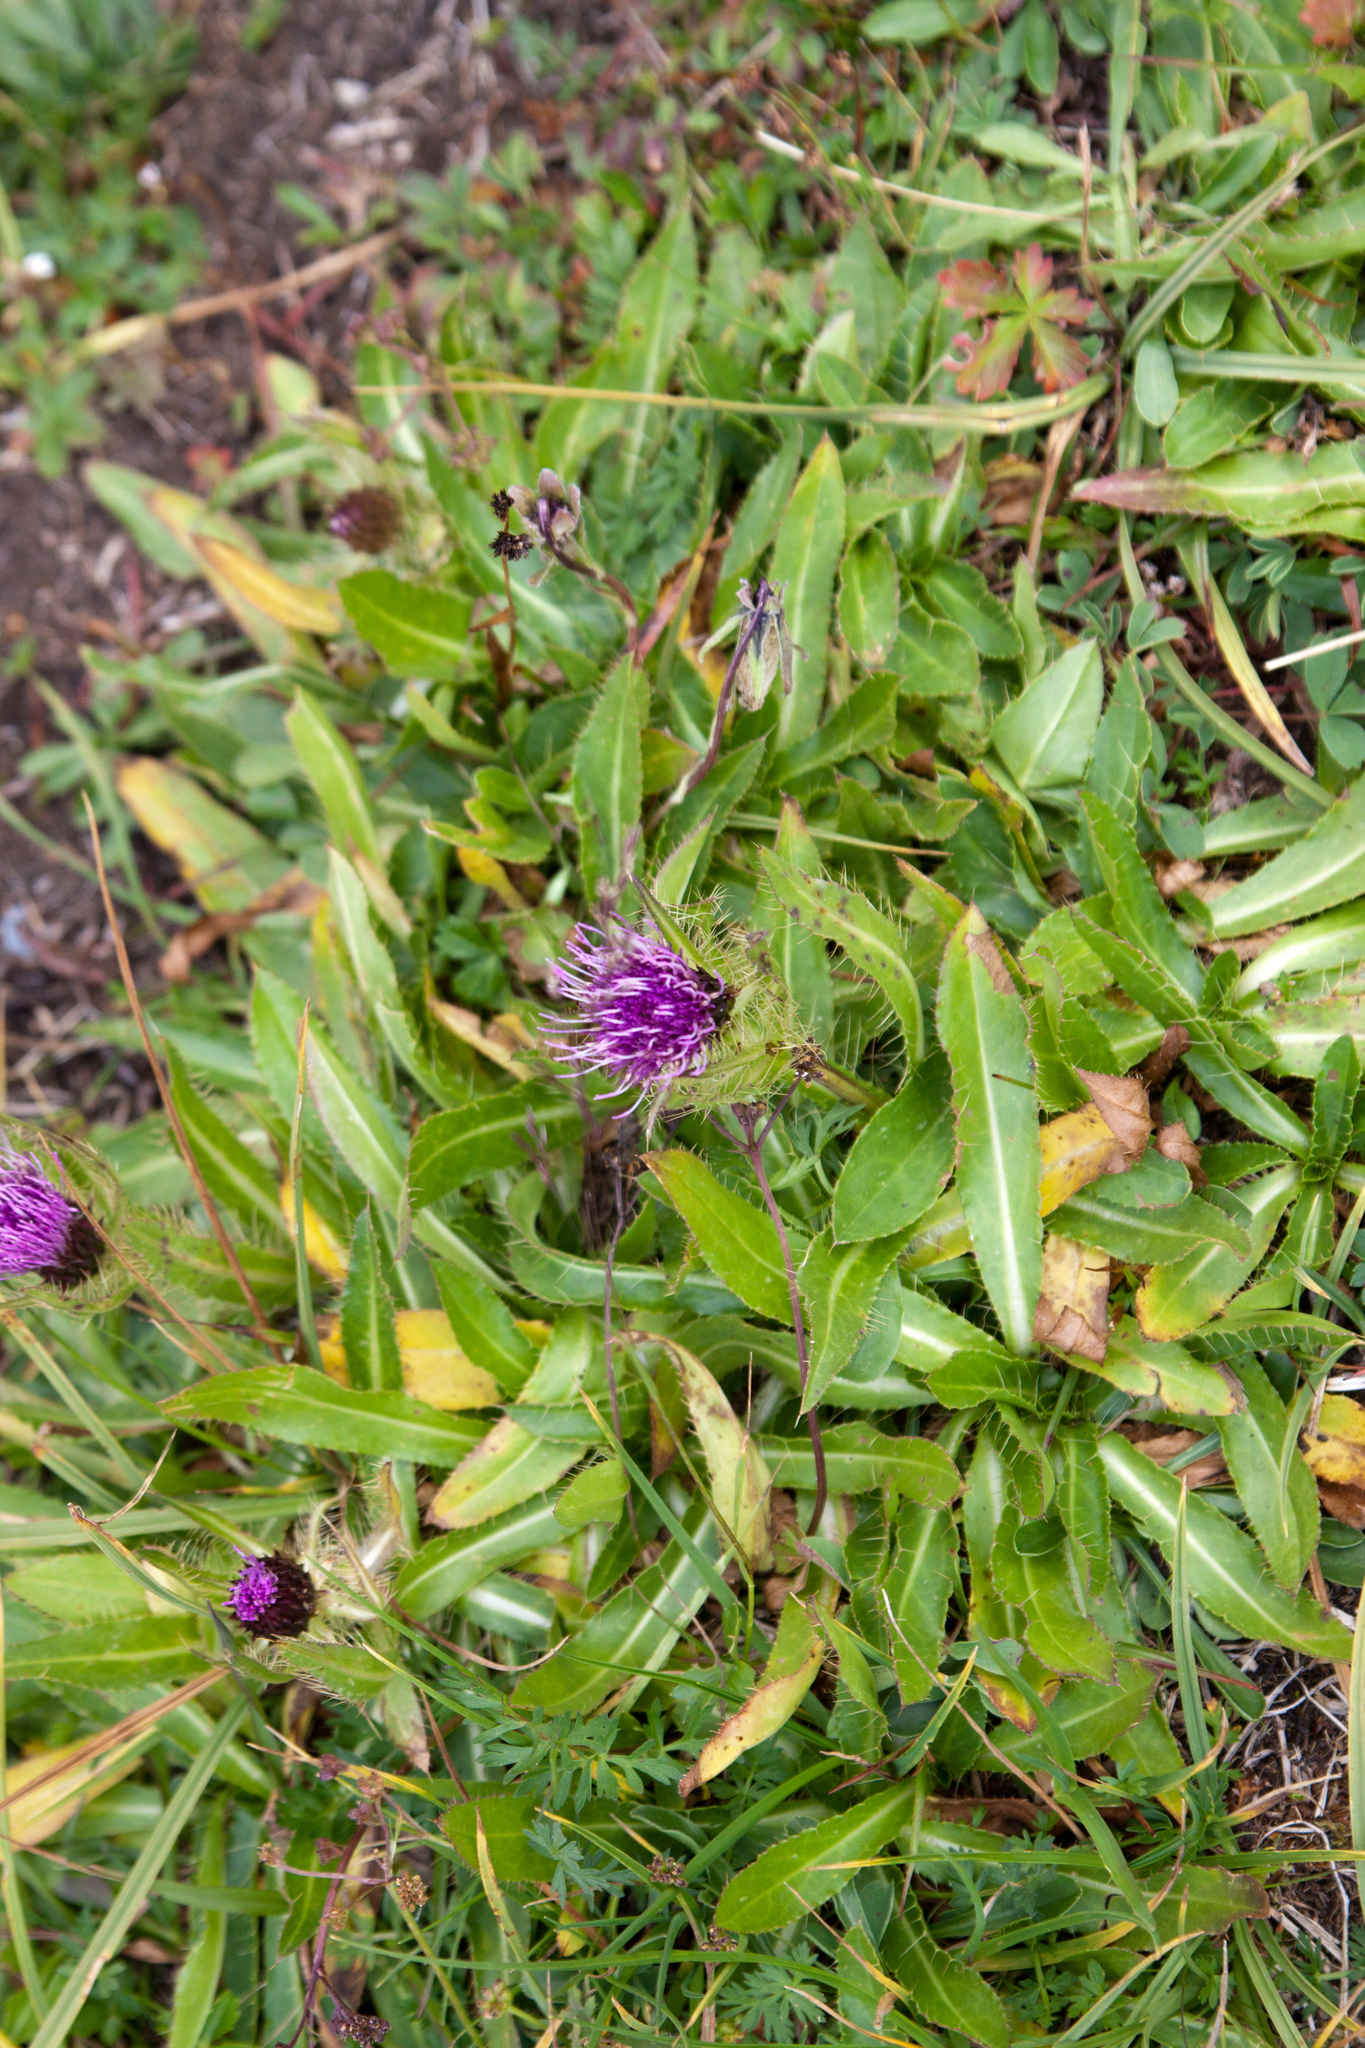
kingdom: Plantae
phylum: Tracheophyta
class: Magnoliopsida
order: Asterales
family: Asteraceae
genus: Cirsium
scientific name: Cirsium simplex
